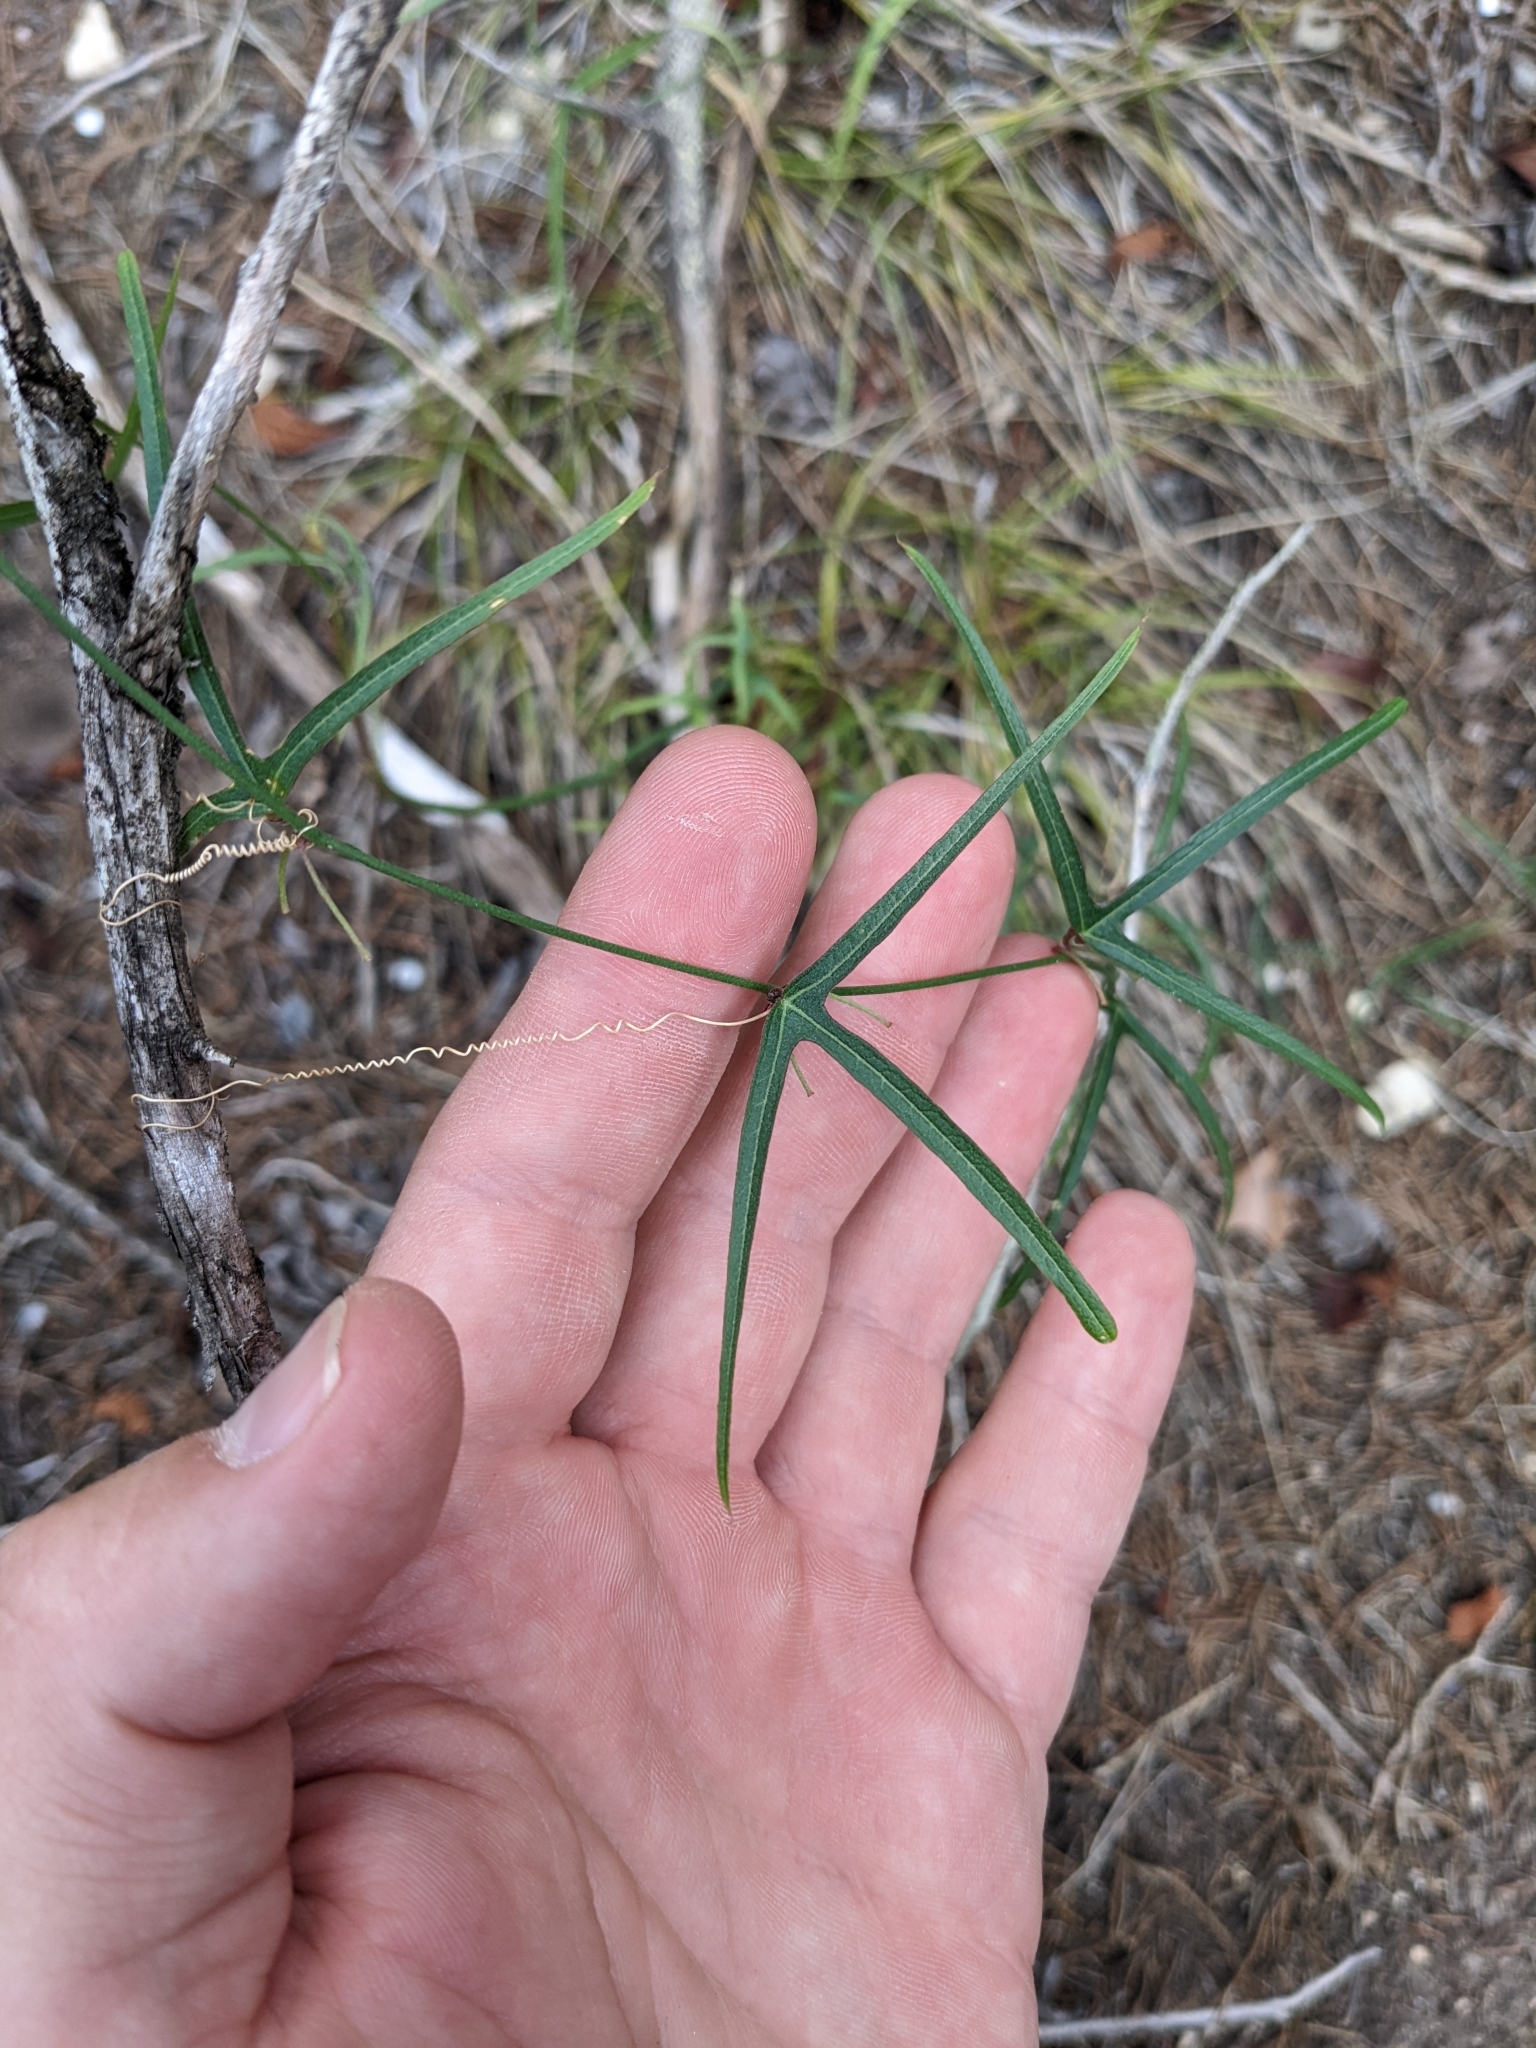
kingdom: Plantae
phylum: Tracheophyta
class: Magnoliopsida
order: Malpighiales
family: Passifloraceae
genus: Passiflora
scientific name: Passiflora tenuiloba
